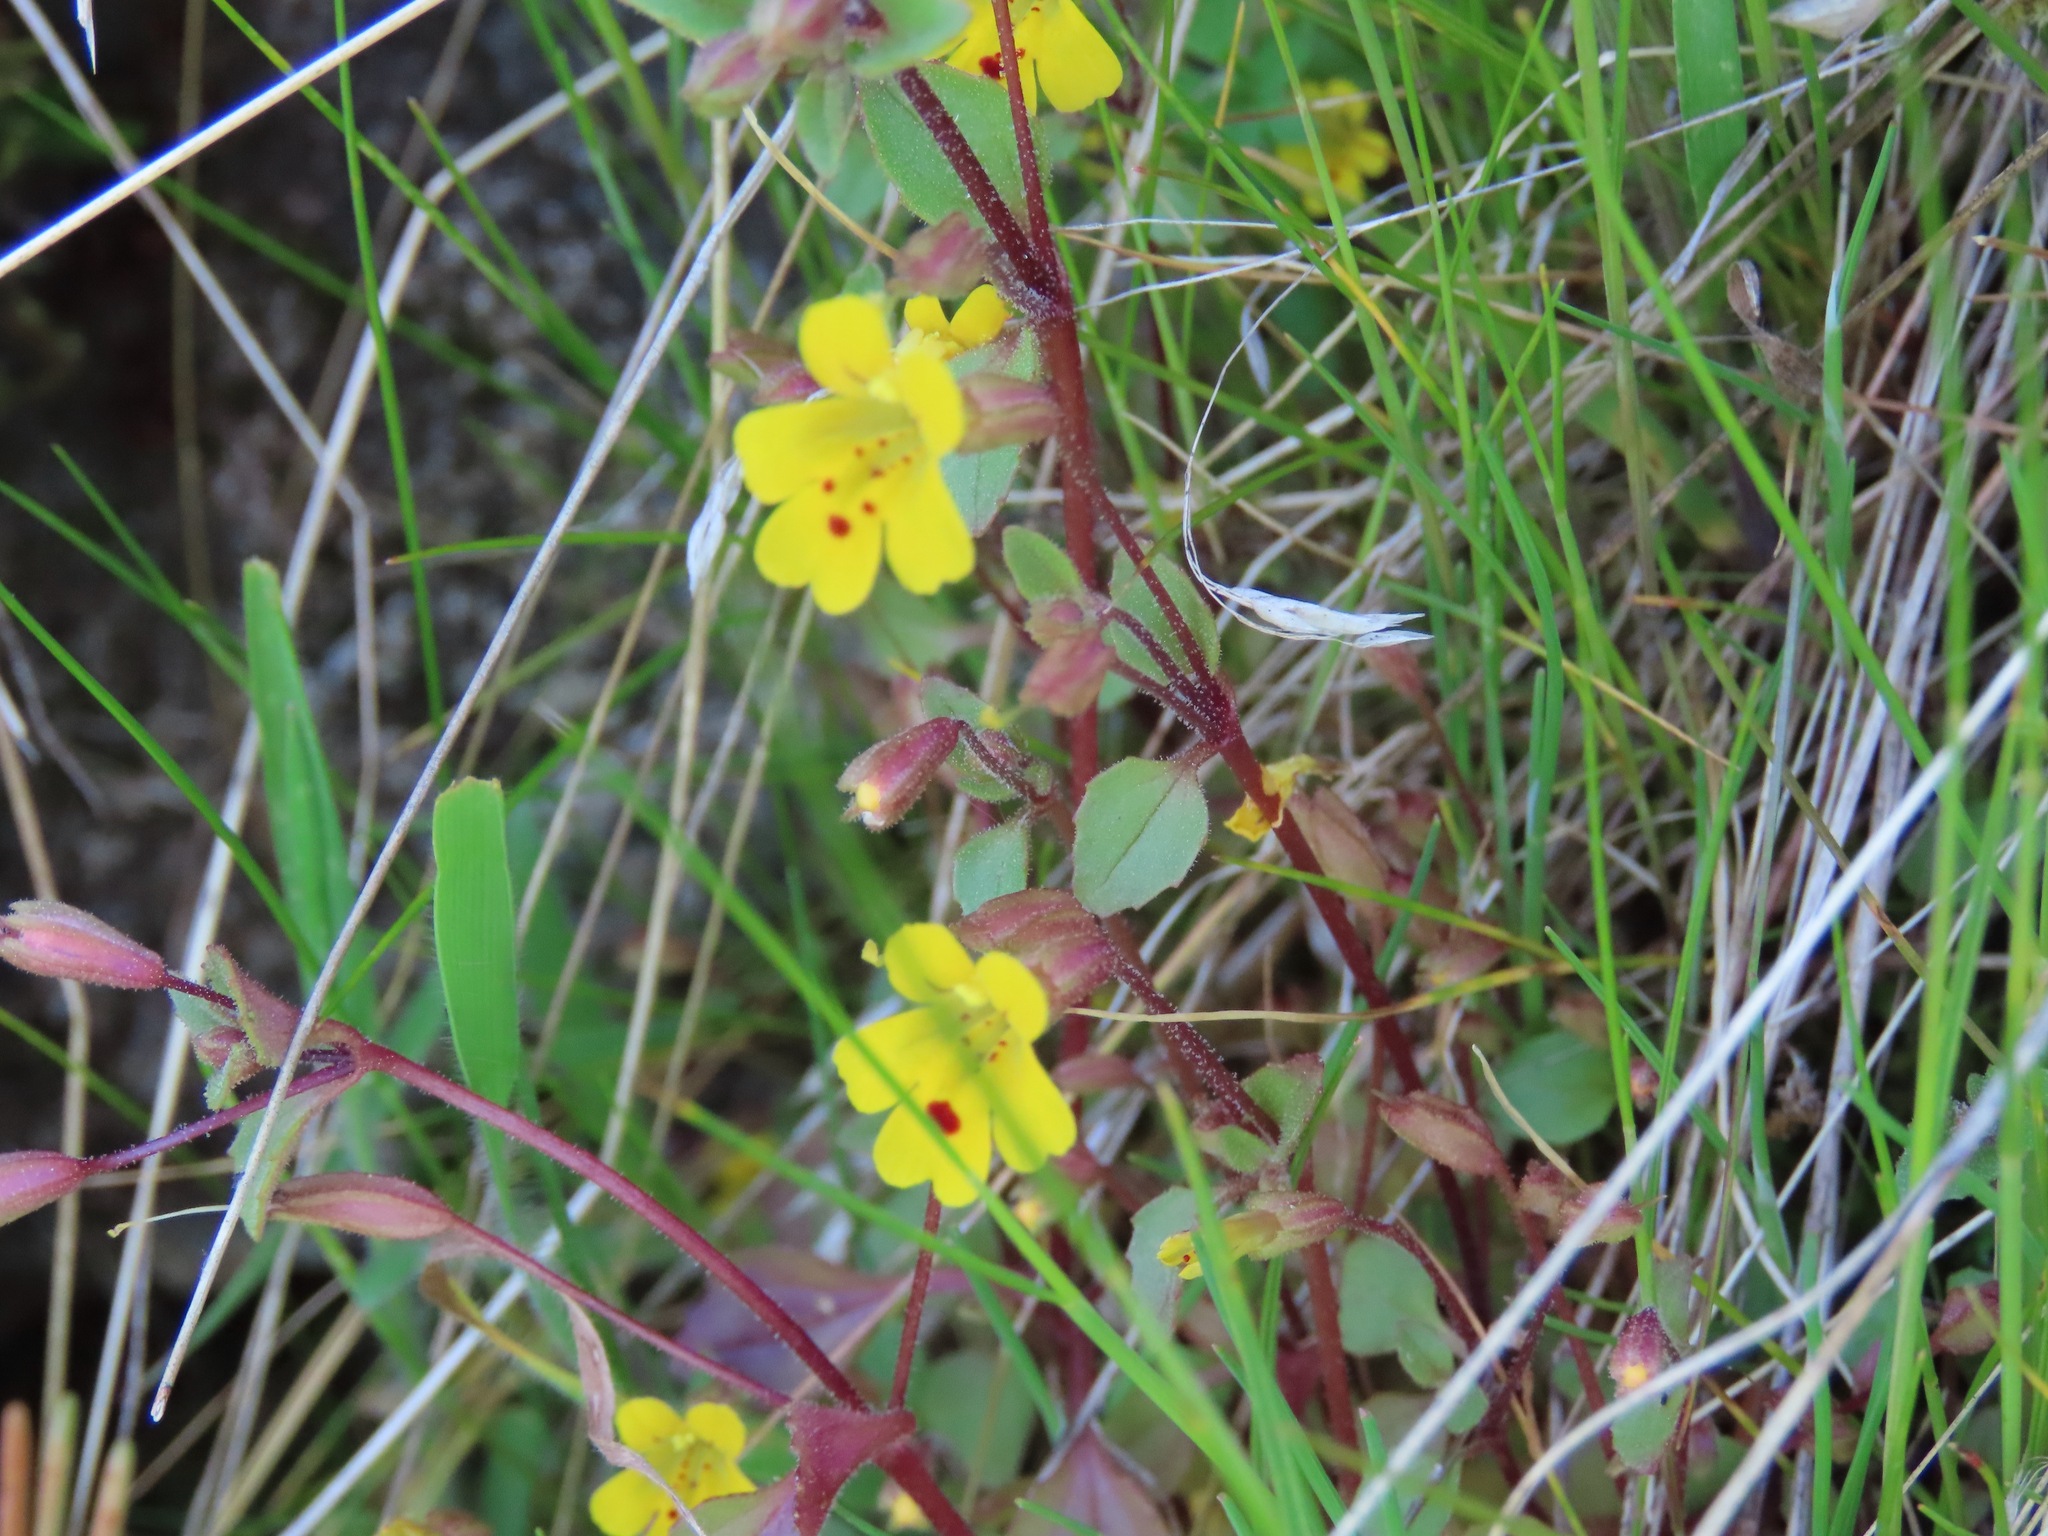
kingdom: Plantae
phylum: Tracheophyta
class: Magnoliopsida
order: Lamiales
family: Phrymaceae
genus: Erythranthe
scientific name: Erythranthe alsinoides
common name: Chickweed monkeyflower
